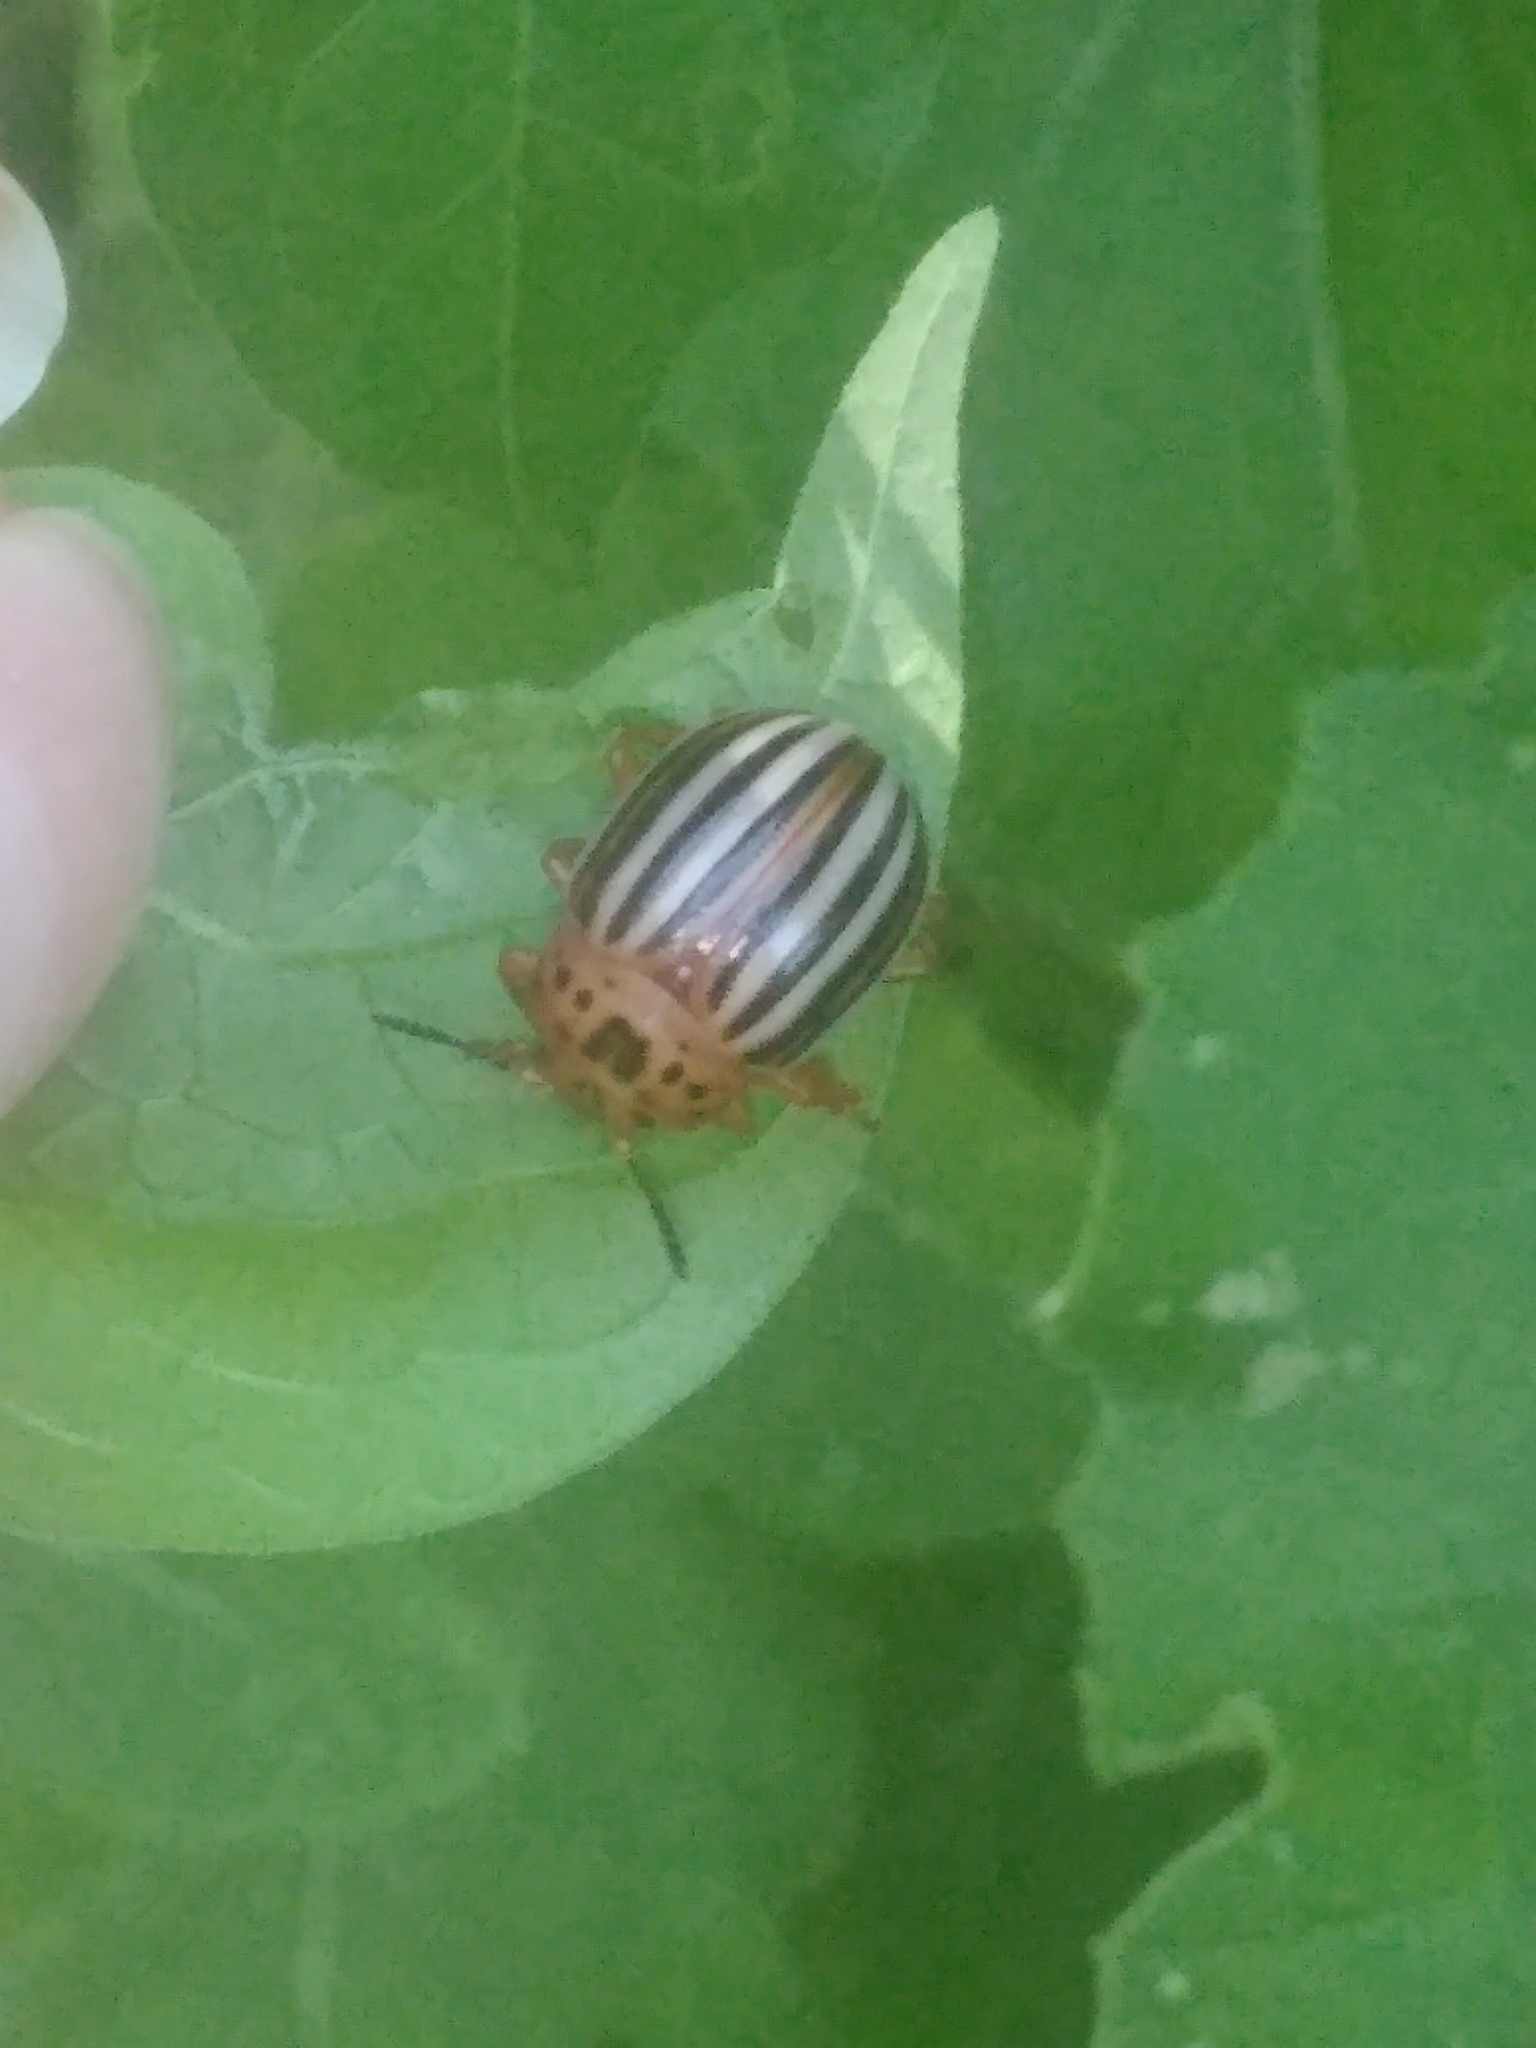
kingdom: Animalia
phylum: Arthropoda
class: Insecta
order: Coleoptera
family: Chrysomelidae
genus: Leptinotarsa
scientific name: Leptinotarsa juncta
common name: False potato beetle
